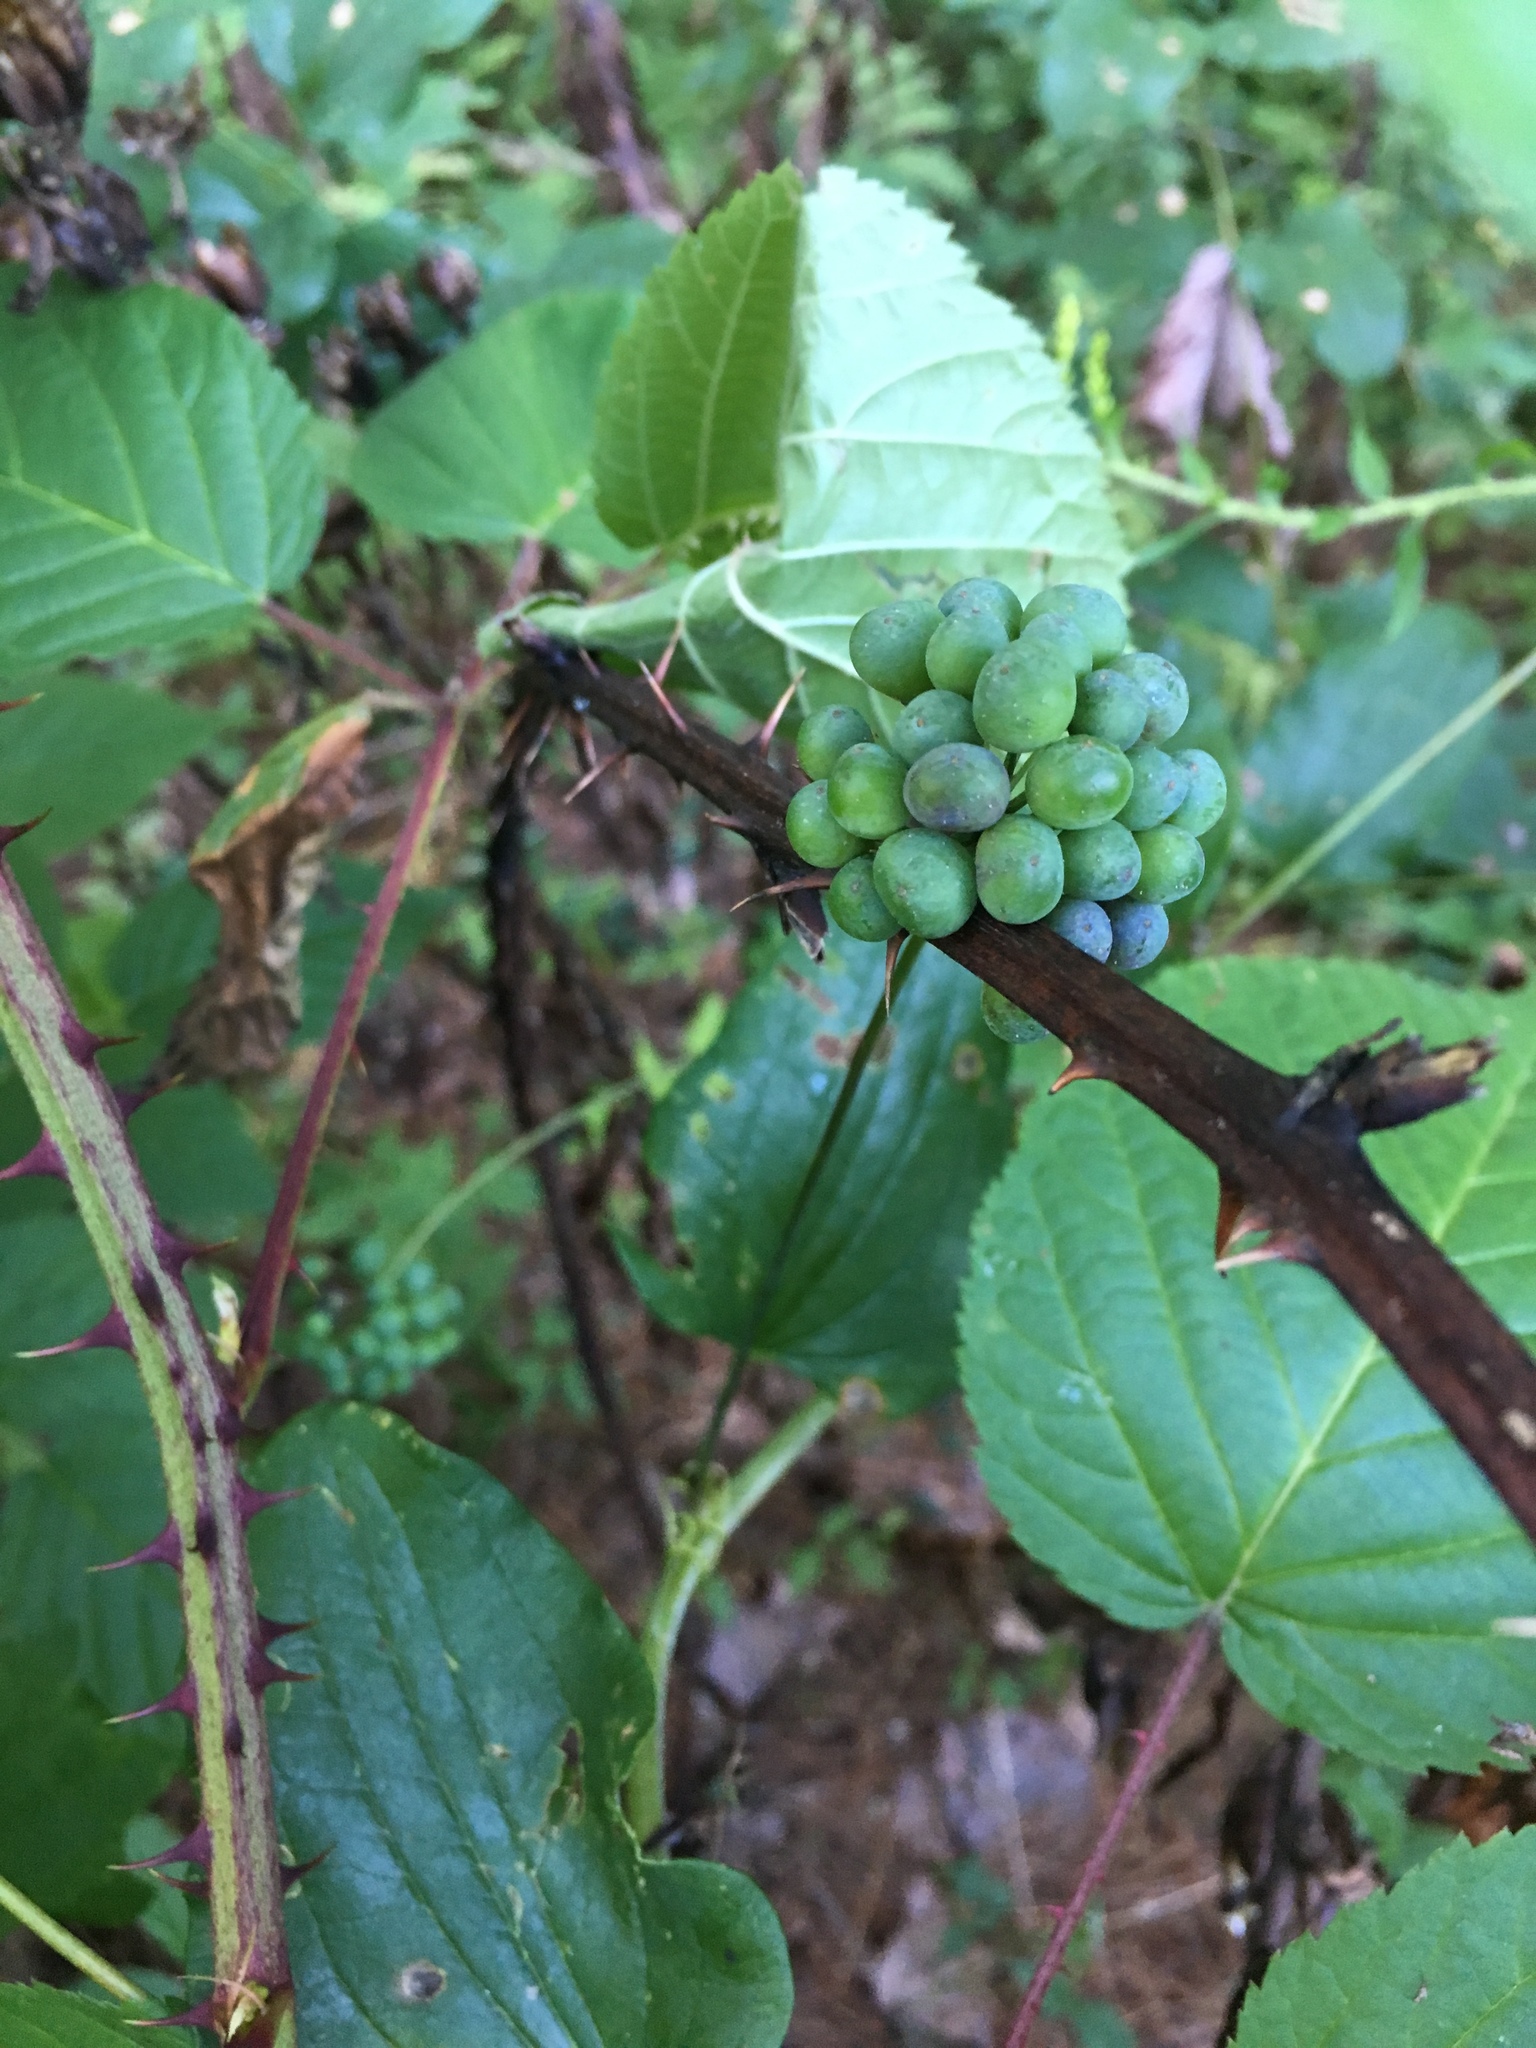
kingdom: Plantae
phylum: Tracheophyta
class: Liliopsida
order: Liliales
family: Smilacaceae
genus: Smilax
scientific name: Smilax herbacea
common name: Jacob's-ladder
